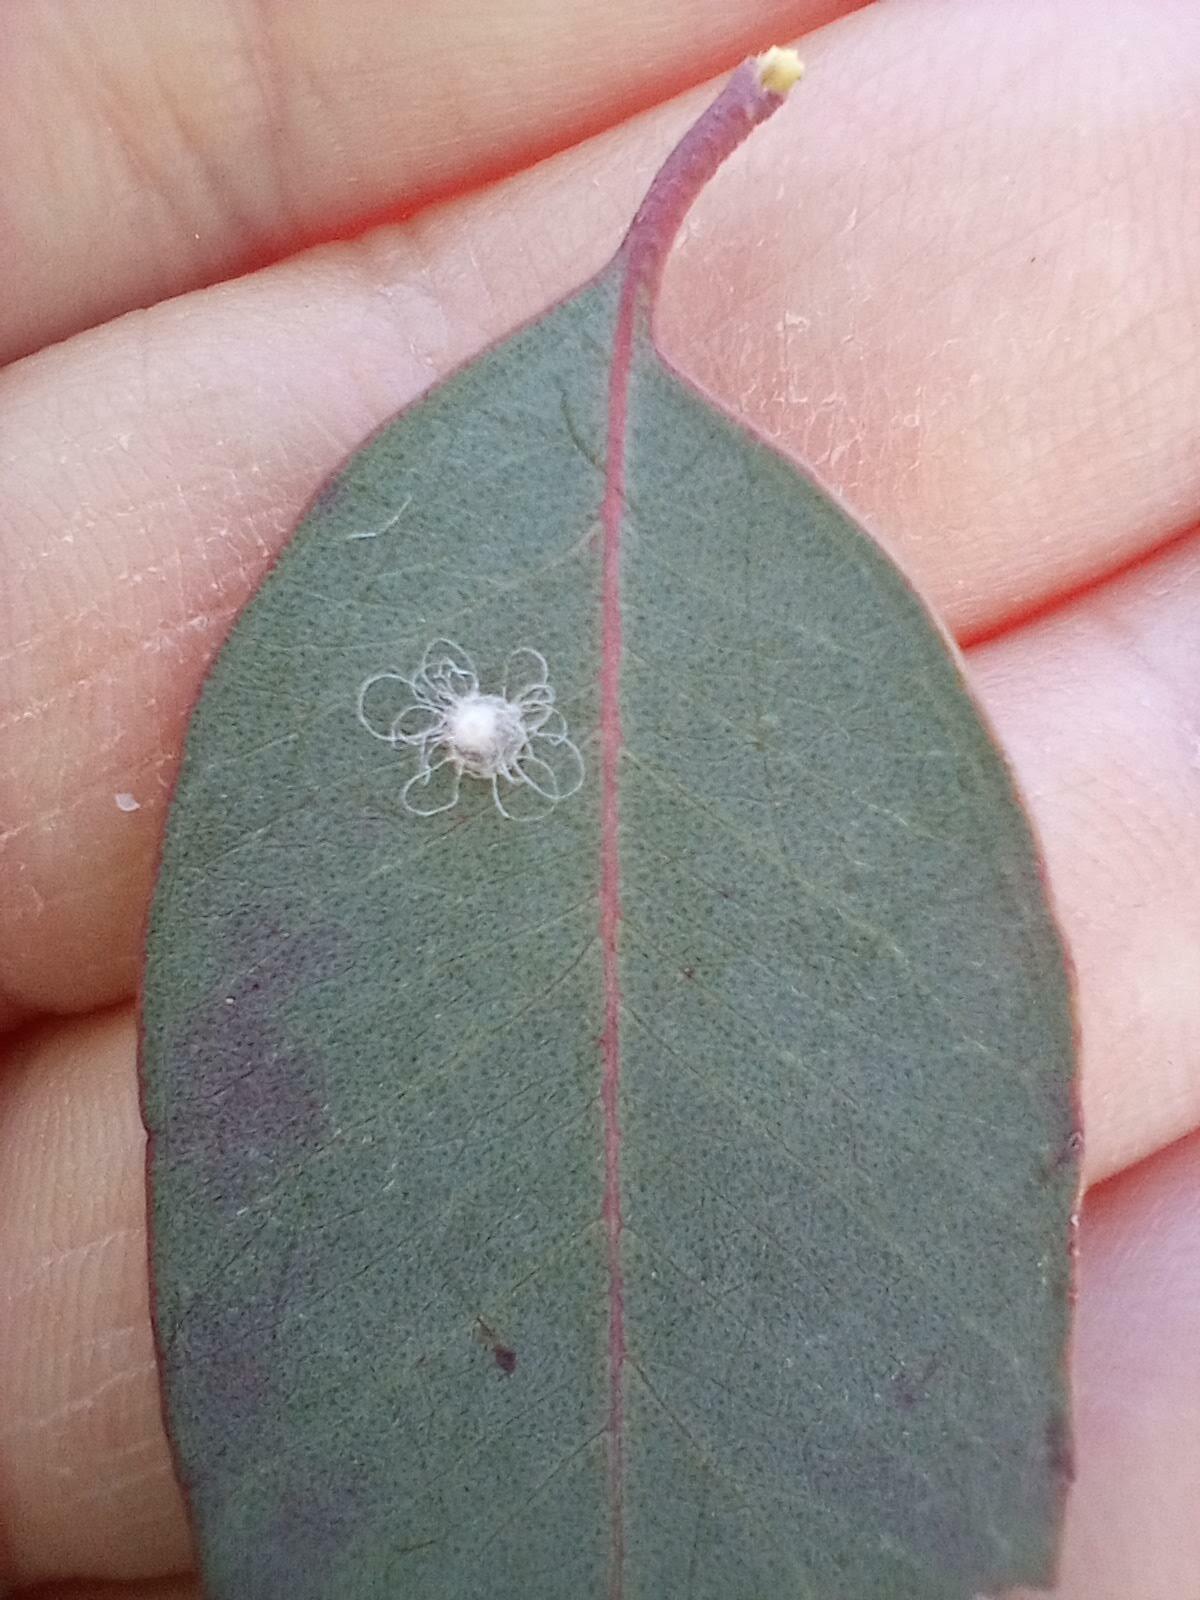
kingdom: Animalia
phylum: Arthropoda
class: Insecta
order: Hemiptera
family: Aphalaridae
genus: Glycaspis
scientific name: Glycaspis brimblecombei
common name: Red gum lerp psyllid
